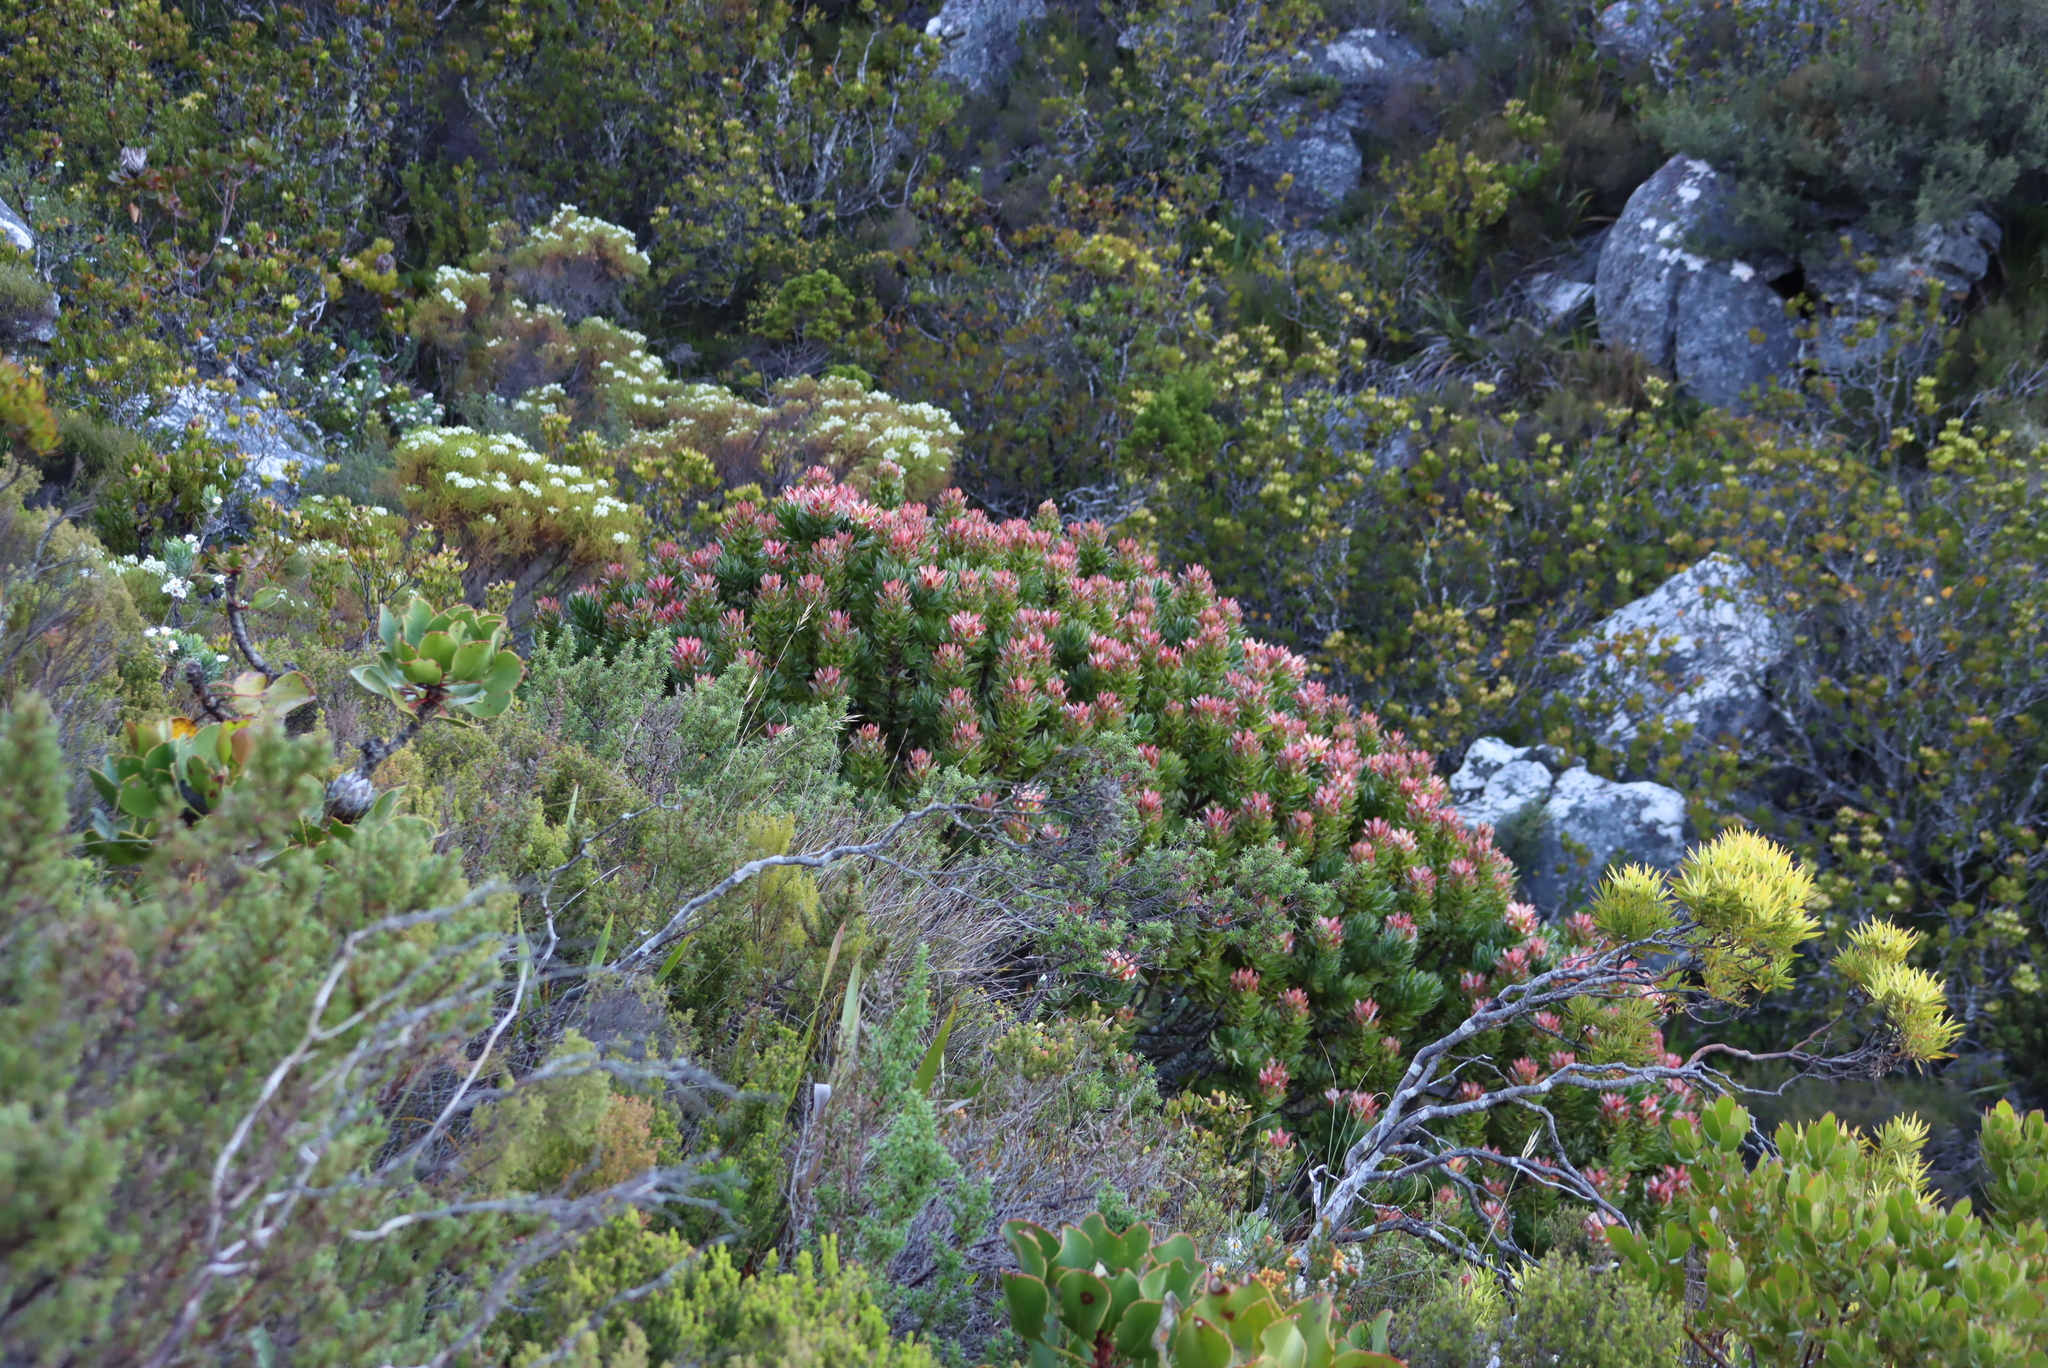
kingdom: Plantae
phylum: Tracheophyta
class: Magnoliopsida
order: Proteales
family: Proteaceae
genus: Mimetes
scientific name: Mimetes fimbriifolius
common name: Fringed bottlebrush
